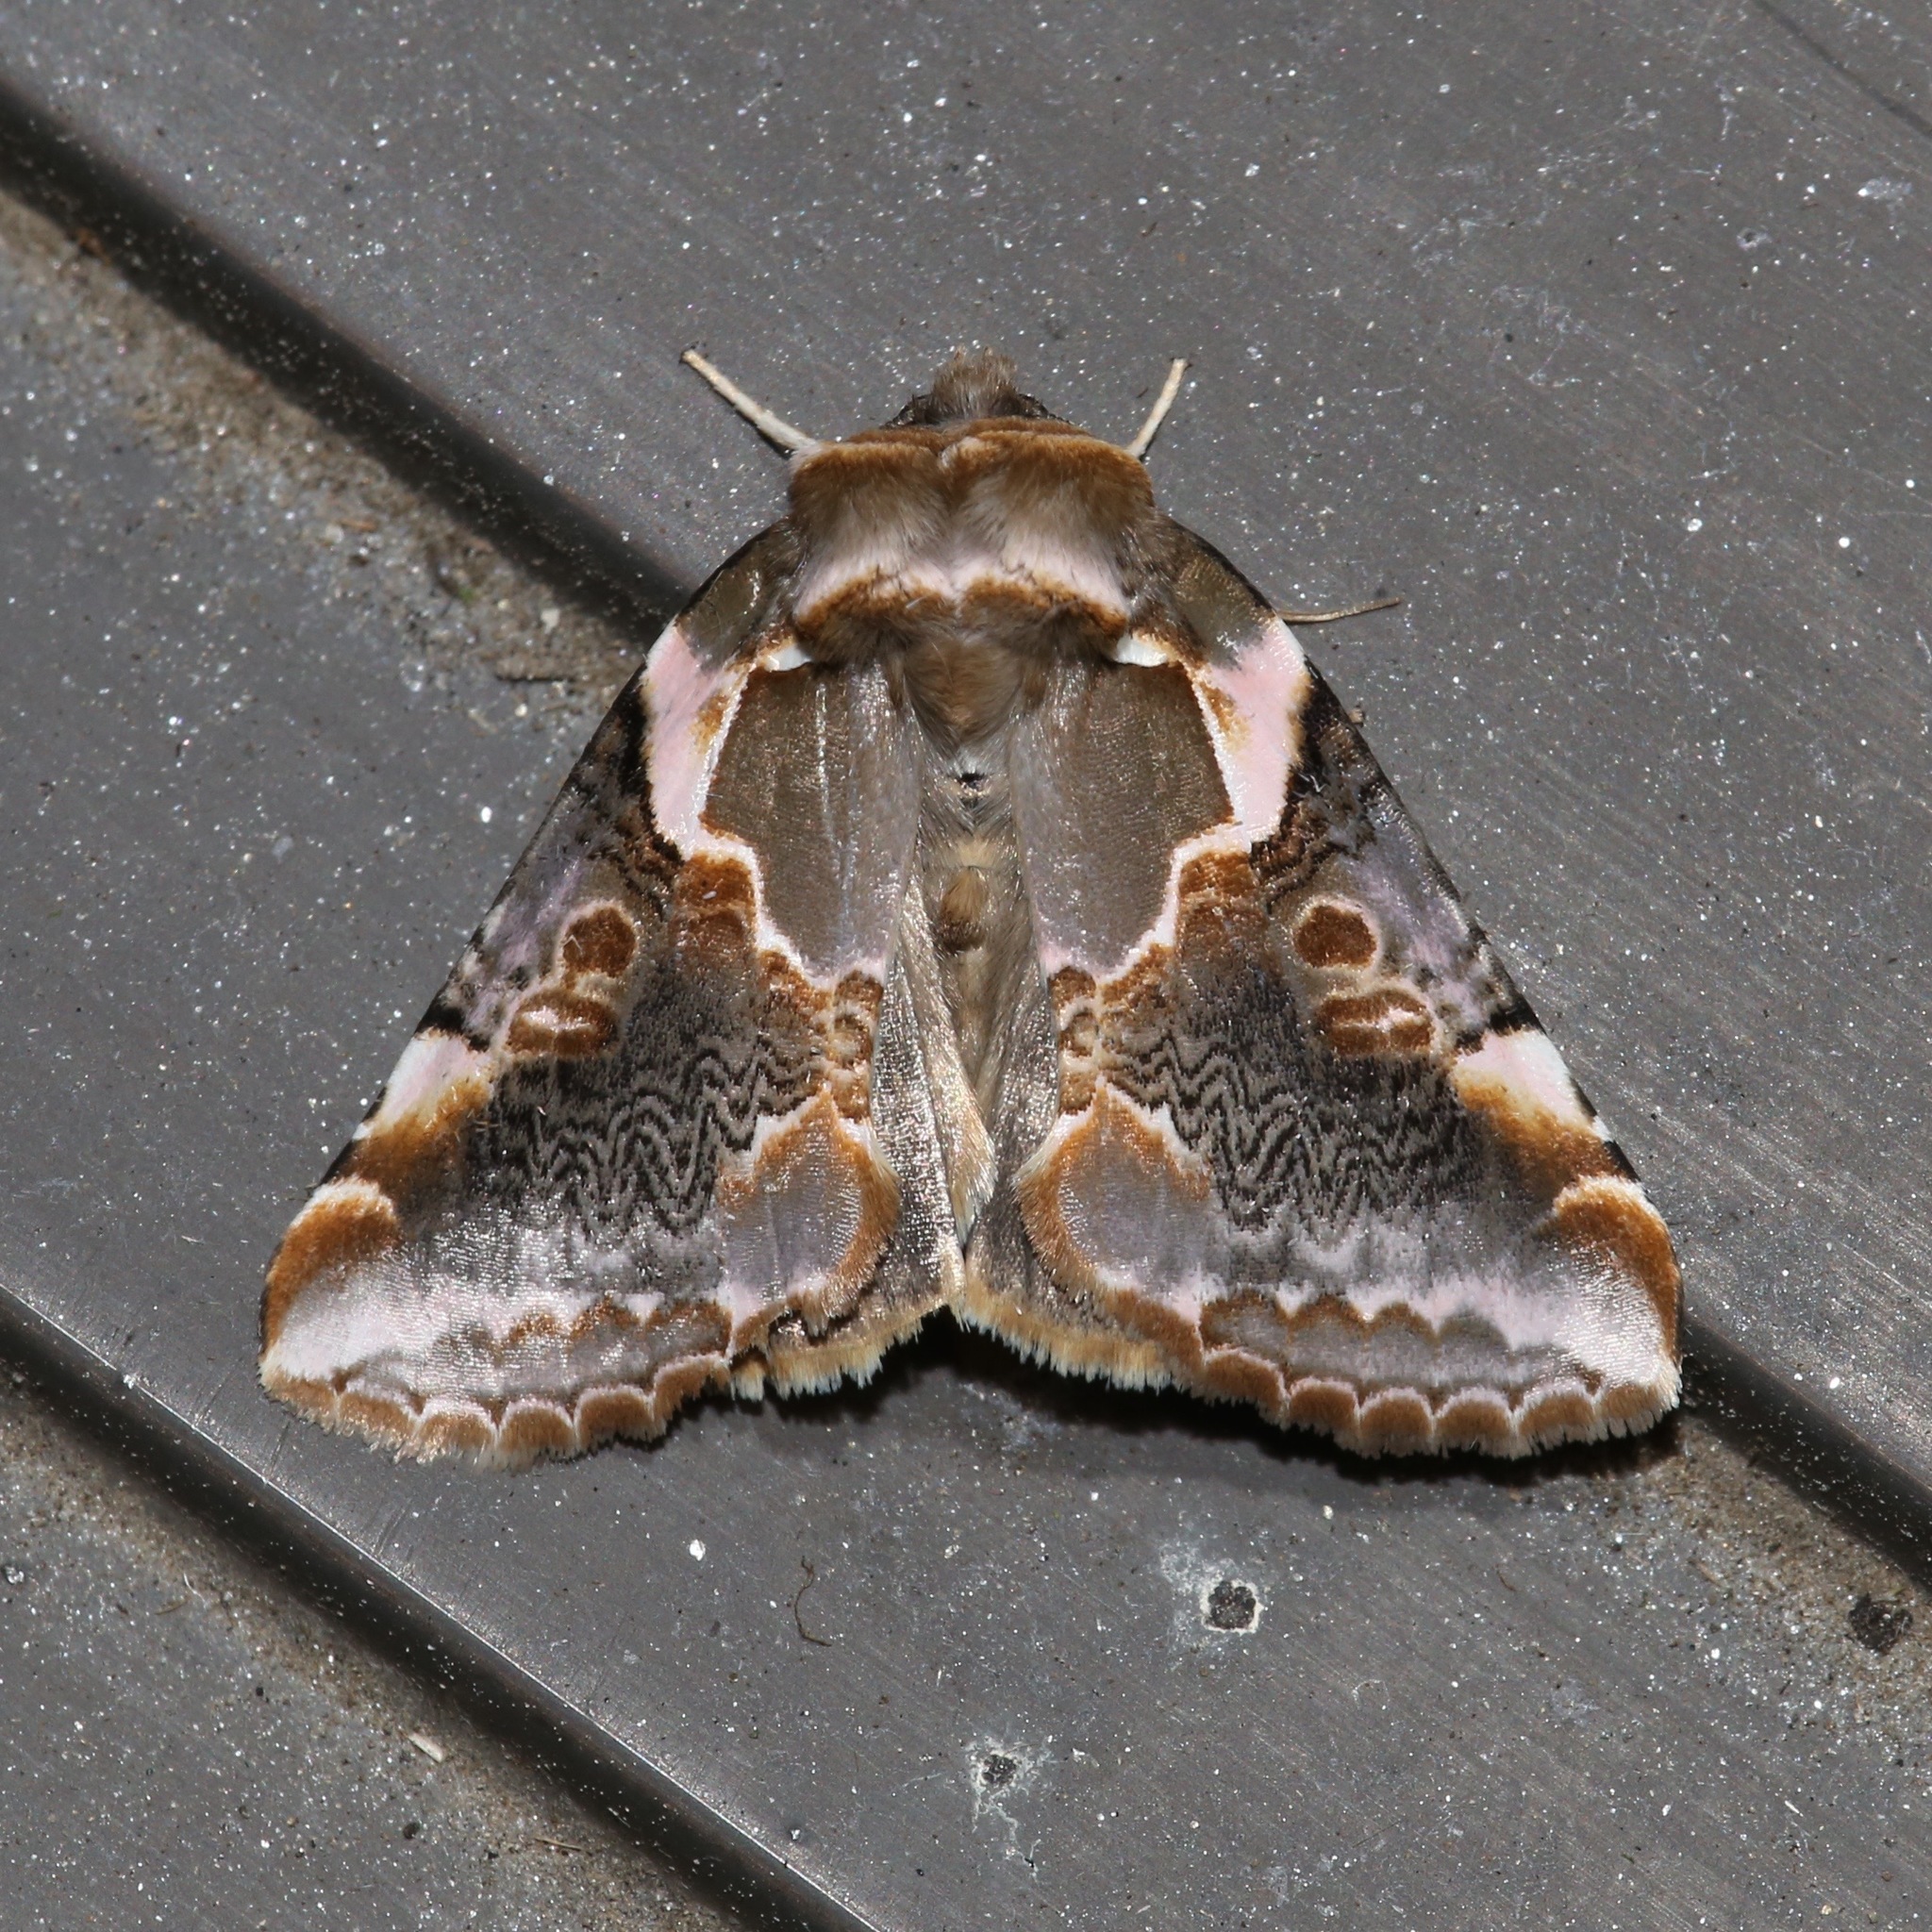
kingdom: Animalia
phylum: Arthropoda
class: Insecta
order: Lepidoptera
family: Drepanidae
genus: Habrosyne
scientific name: Habrosyne gloriosa
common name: Glorious habrosyne moth
